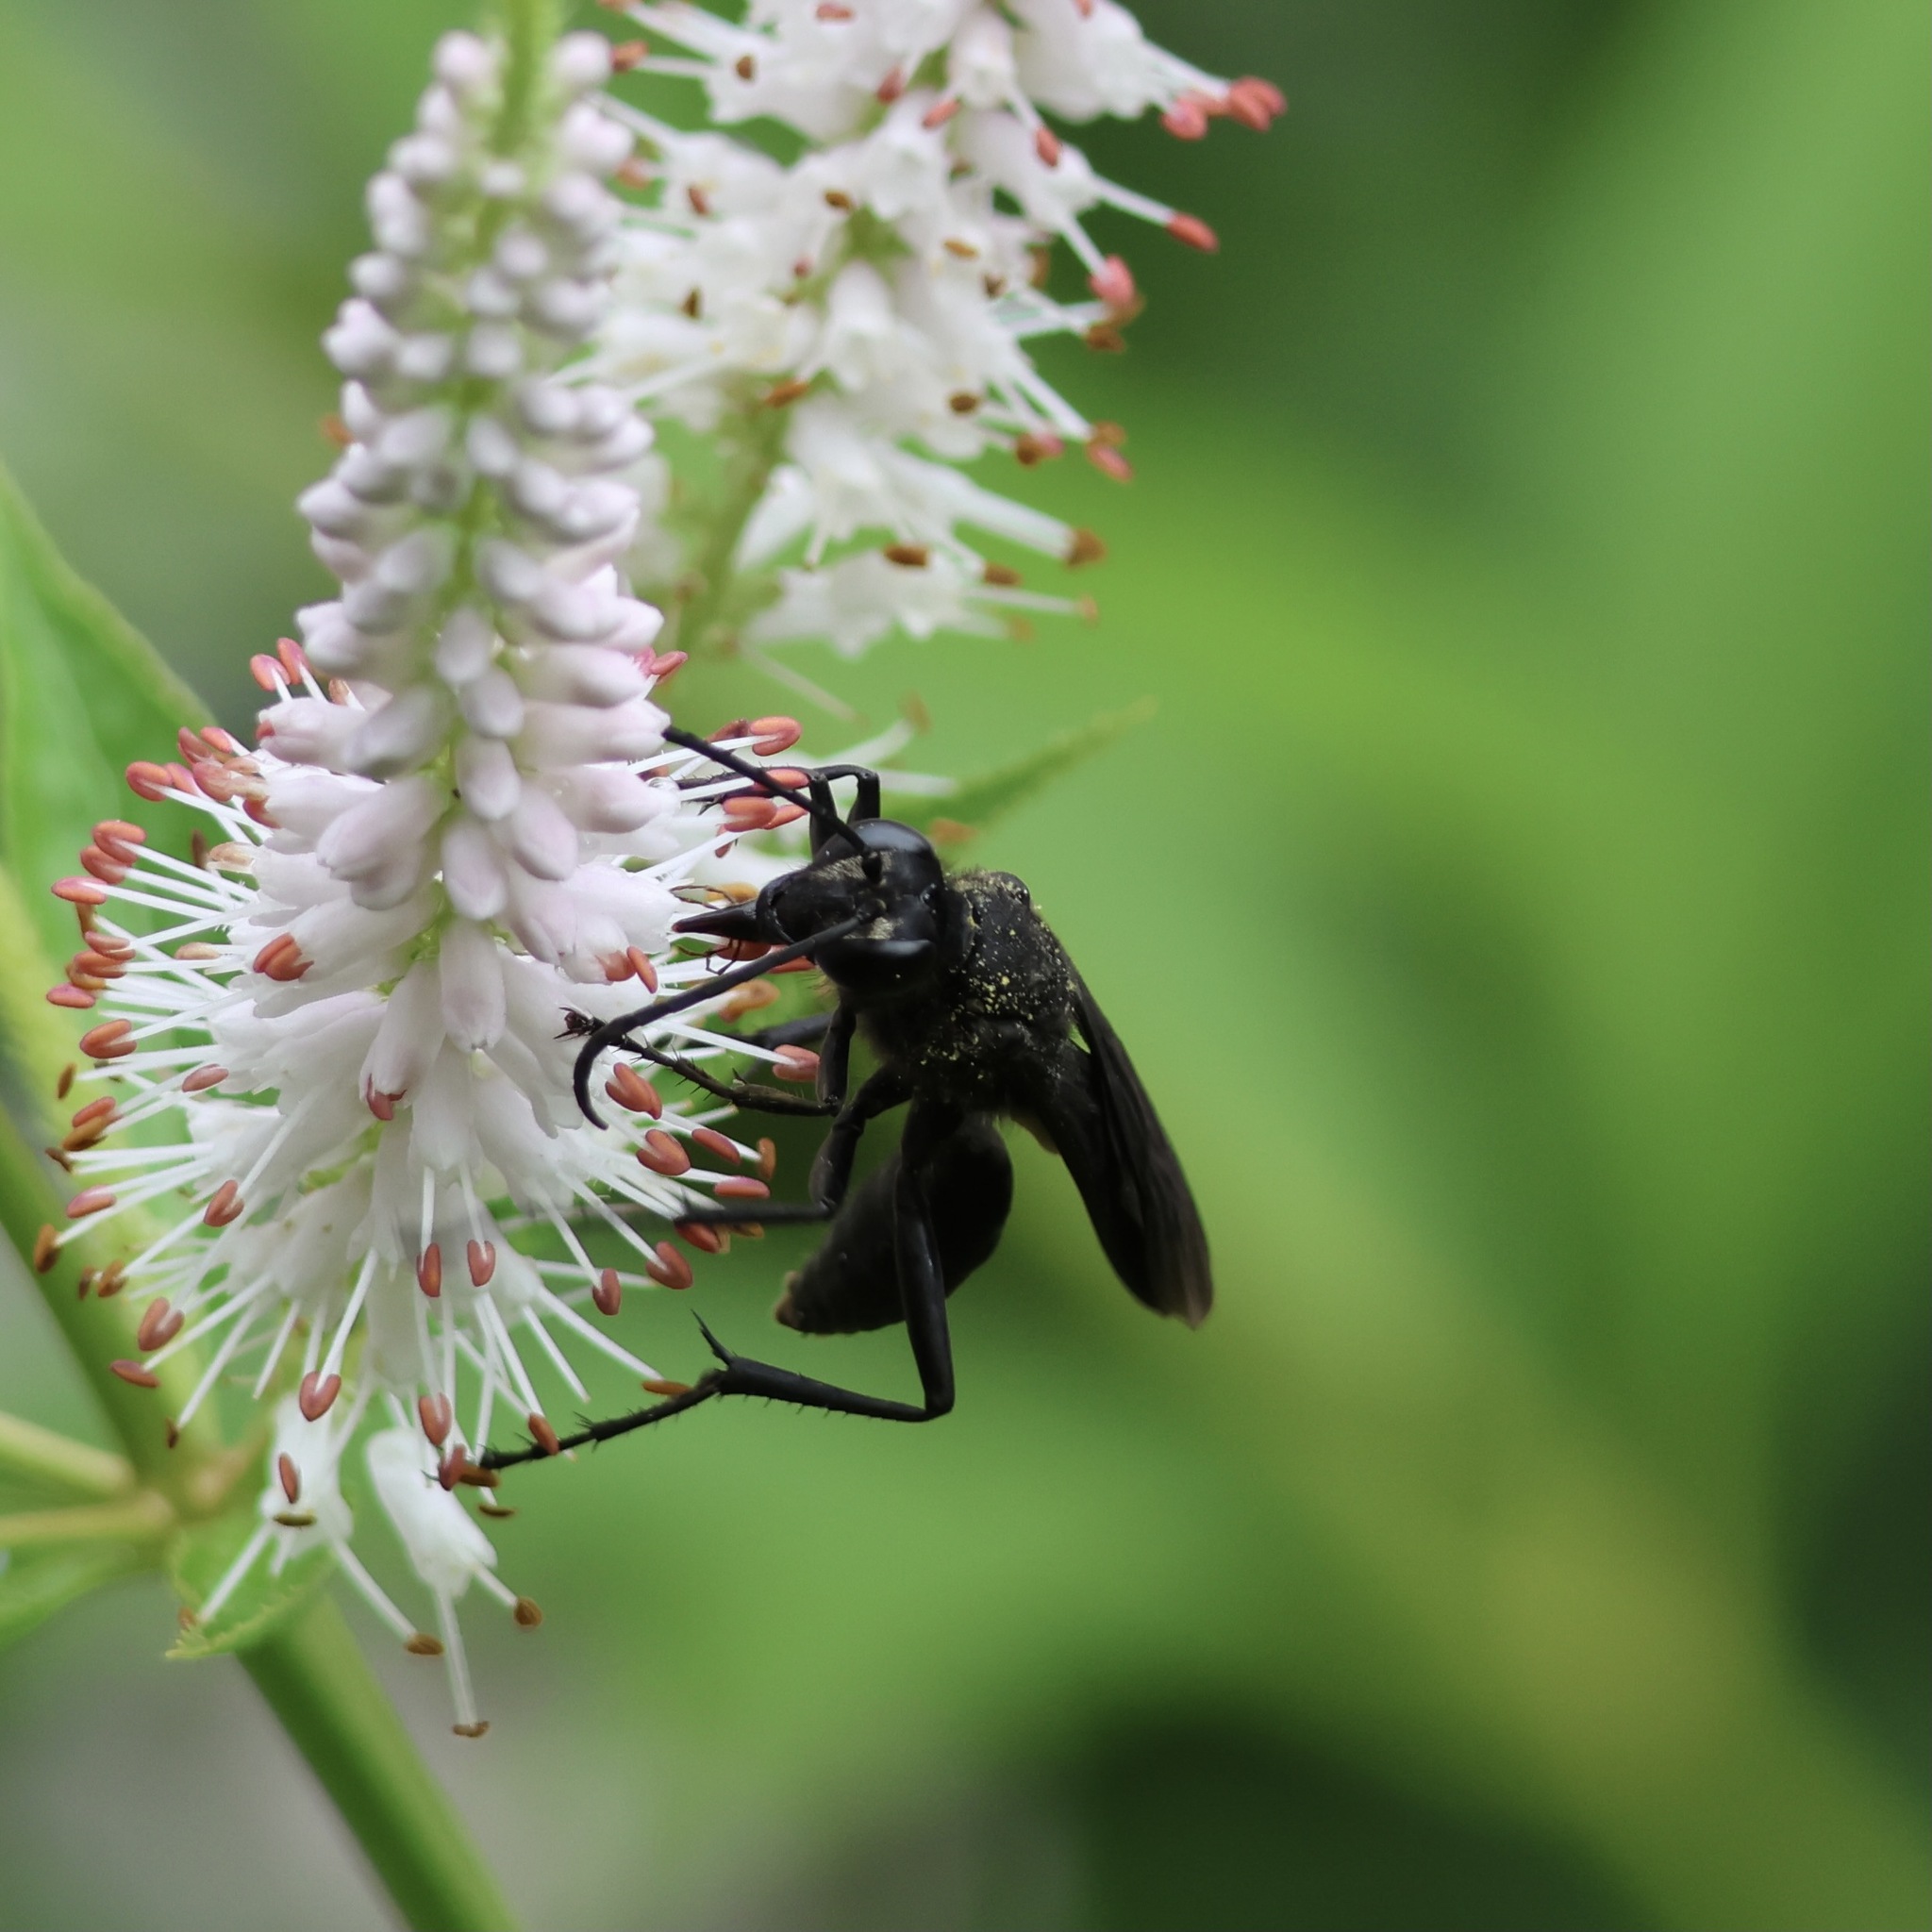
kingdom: Animalia
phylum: Arthropoda
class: Insecta
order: Hymenoptera
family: Sphecidae
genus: Sphex
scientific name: Sphex pensylvanicus
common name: Great black digger wasp
